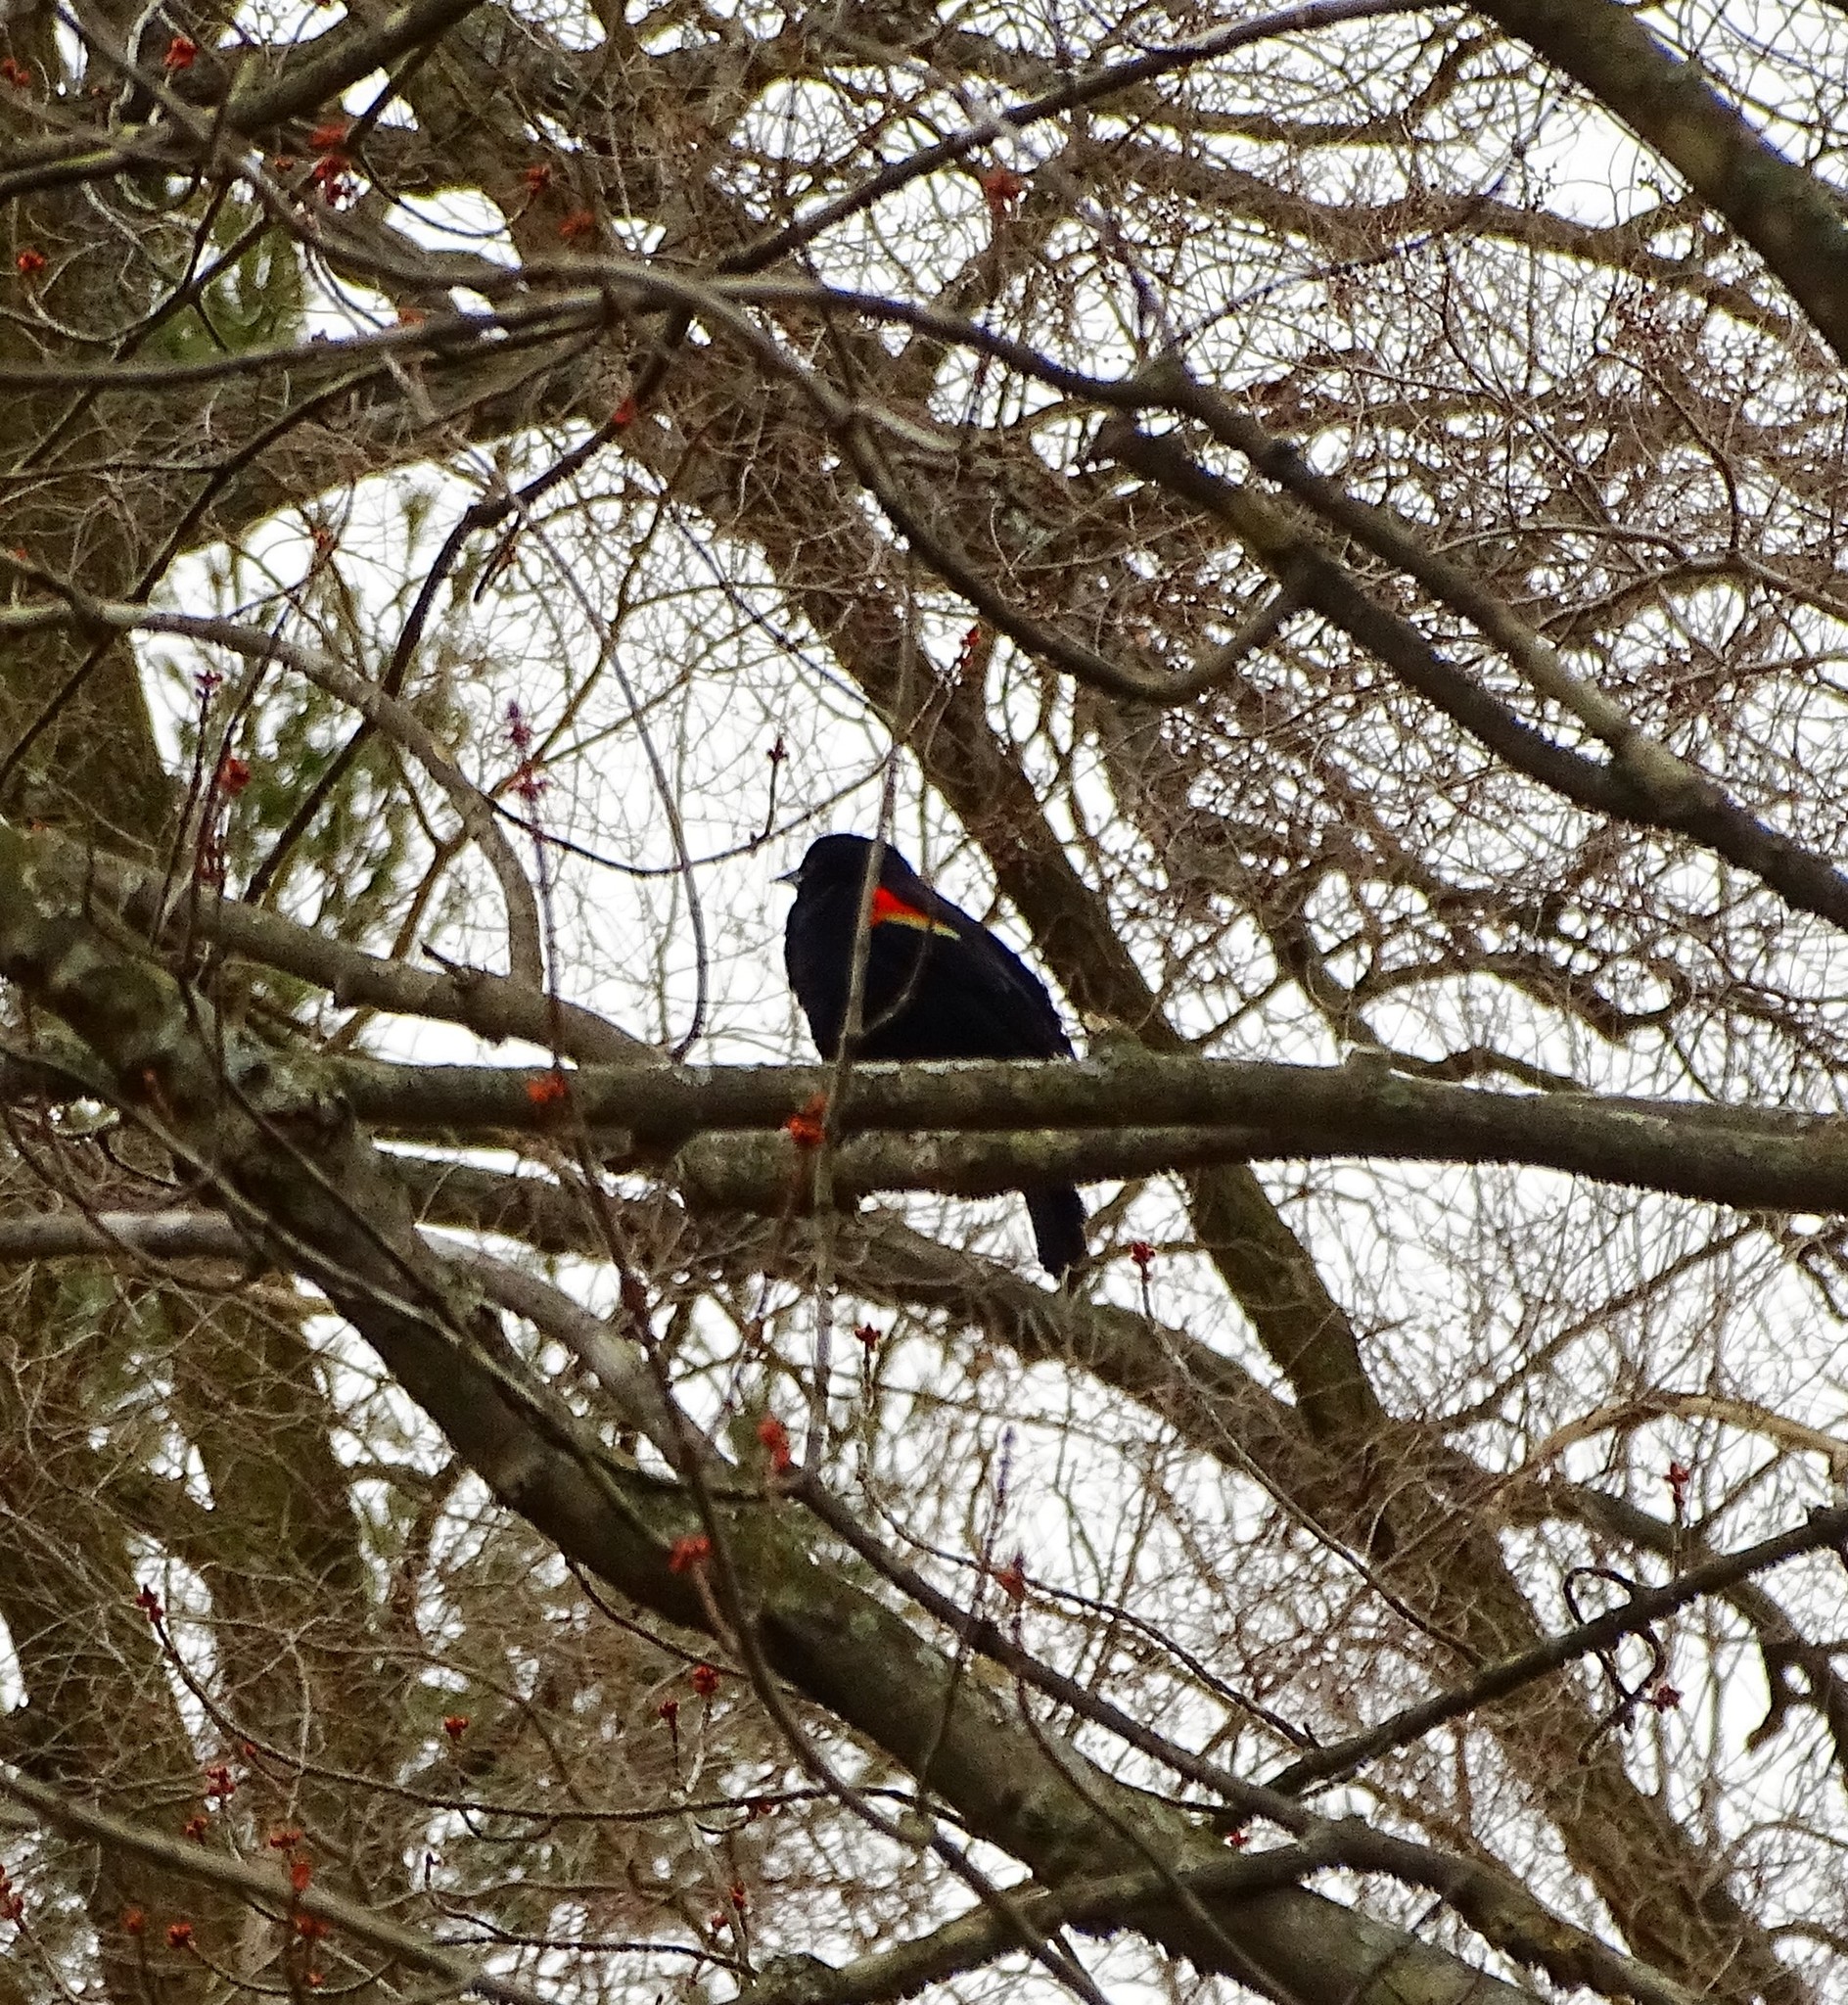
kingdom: Animalia
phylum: Chordata
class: Aves
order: Passeriformes
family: Icteridae
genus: Agelaius
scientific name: Agelaius phoeniceus
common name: Red-winged blackbird
